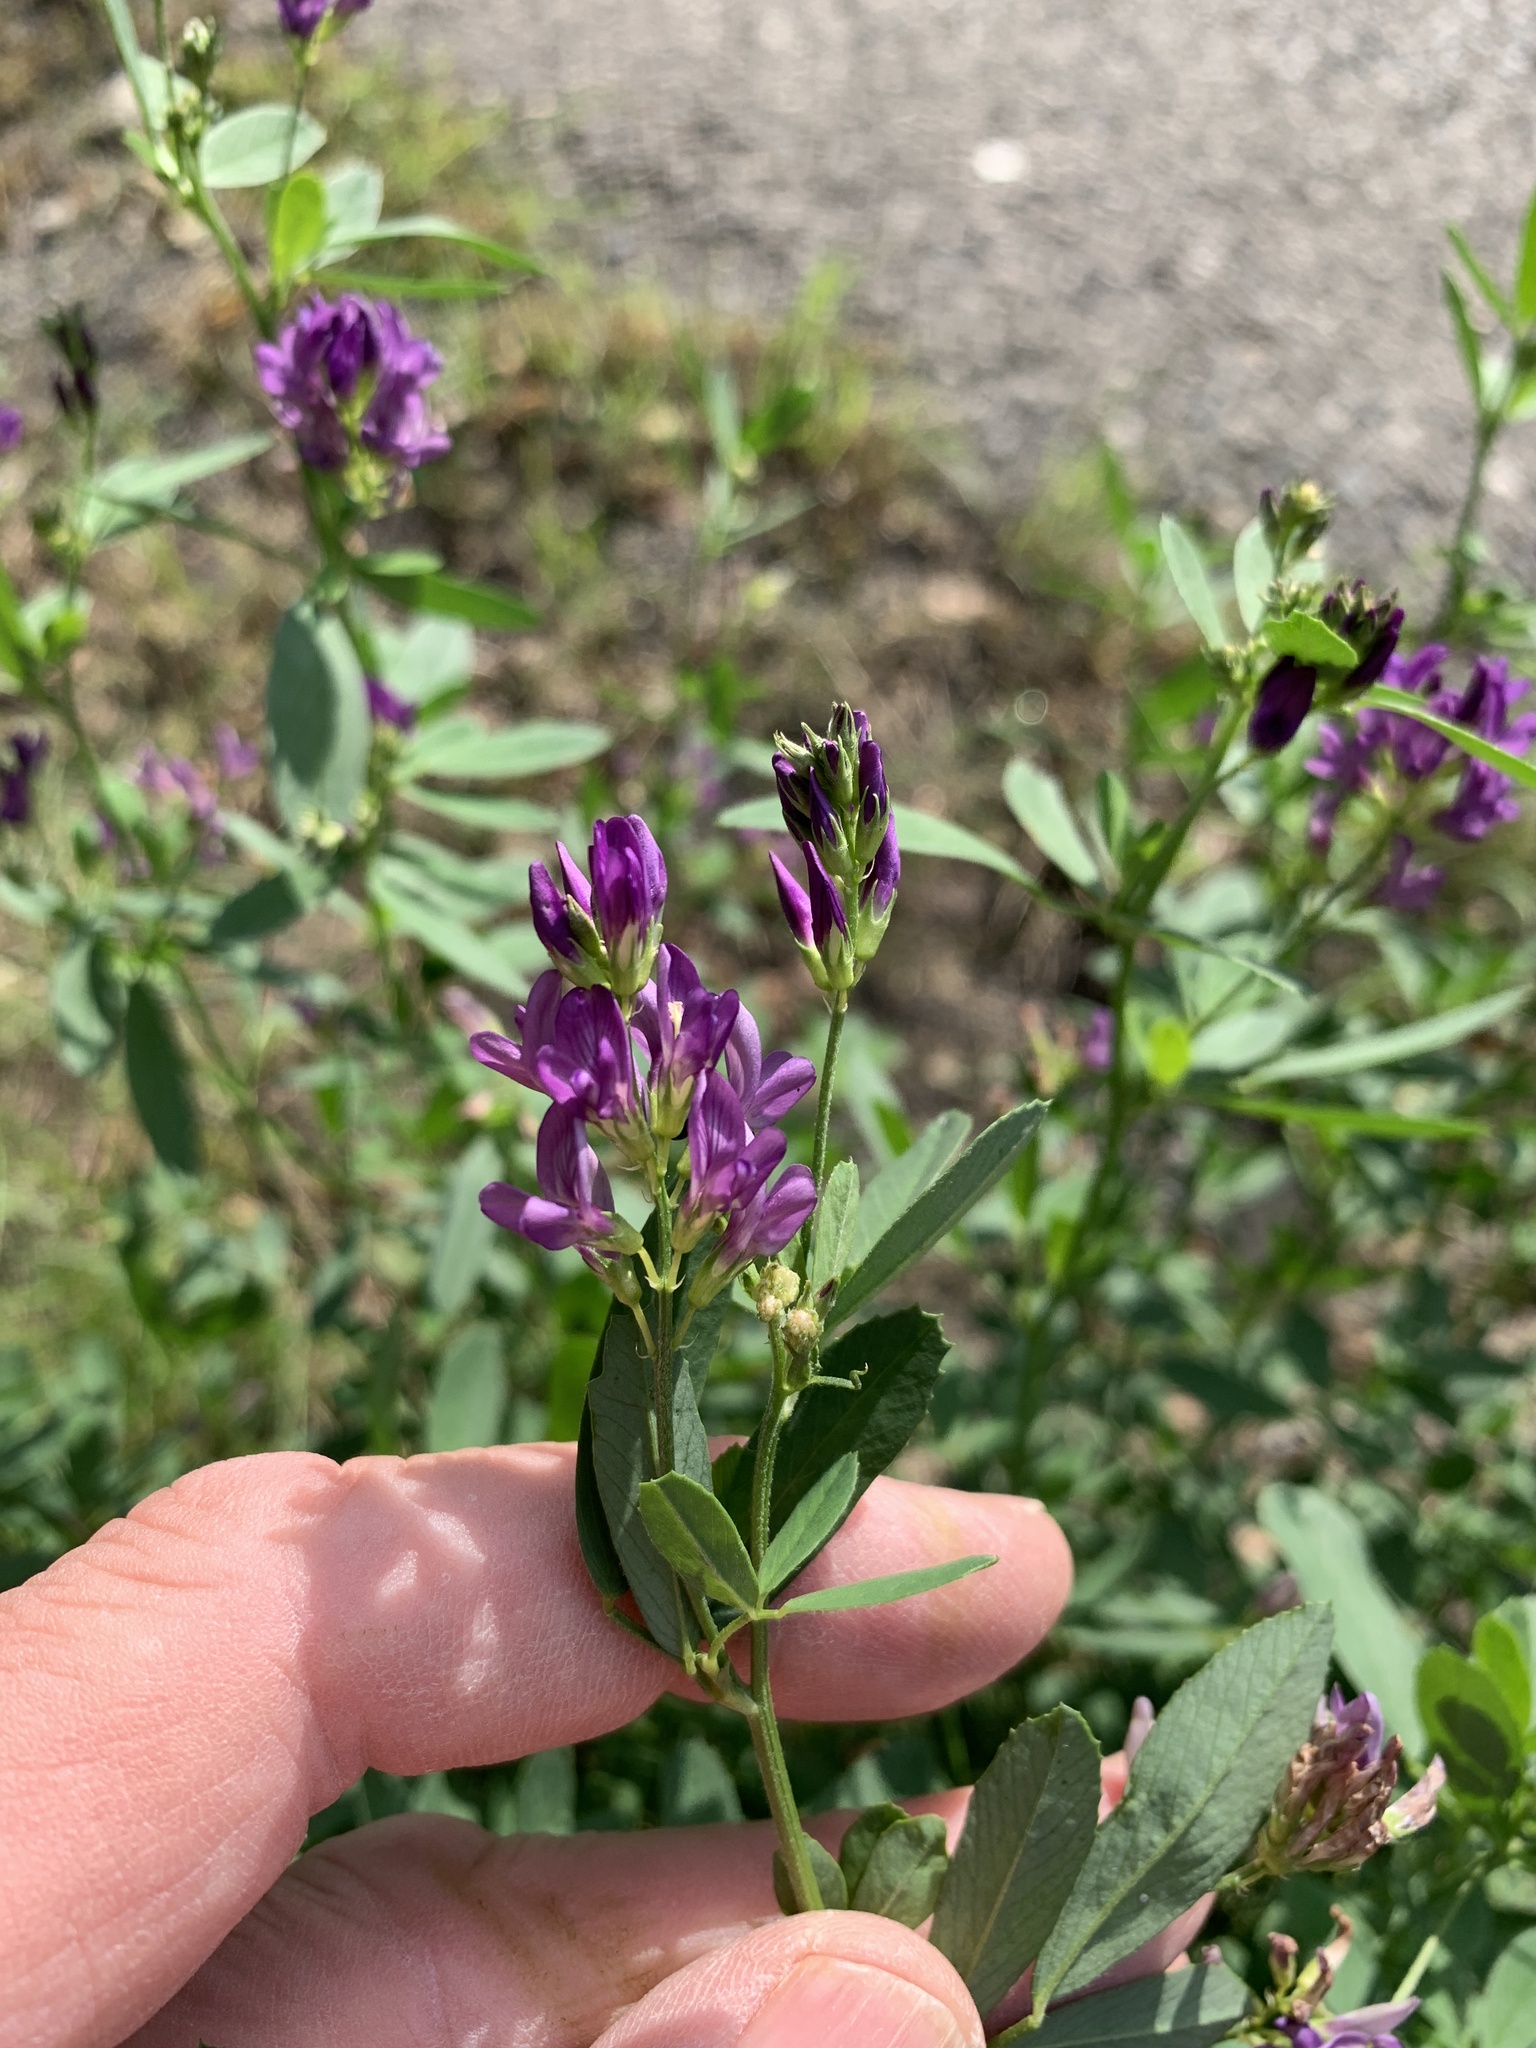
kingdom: Plantae
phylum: Tracheophyta
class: Magnoliopsida
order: Fabales
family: Fabaceae
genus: Medicago
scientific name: Medicago sativa
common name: Alfalfa
